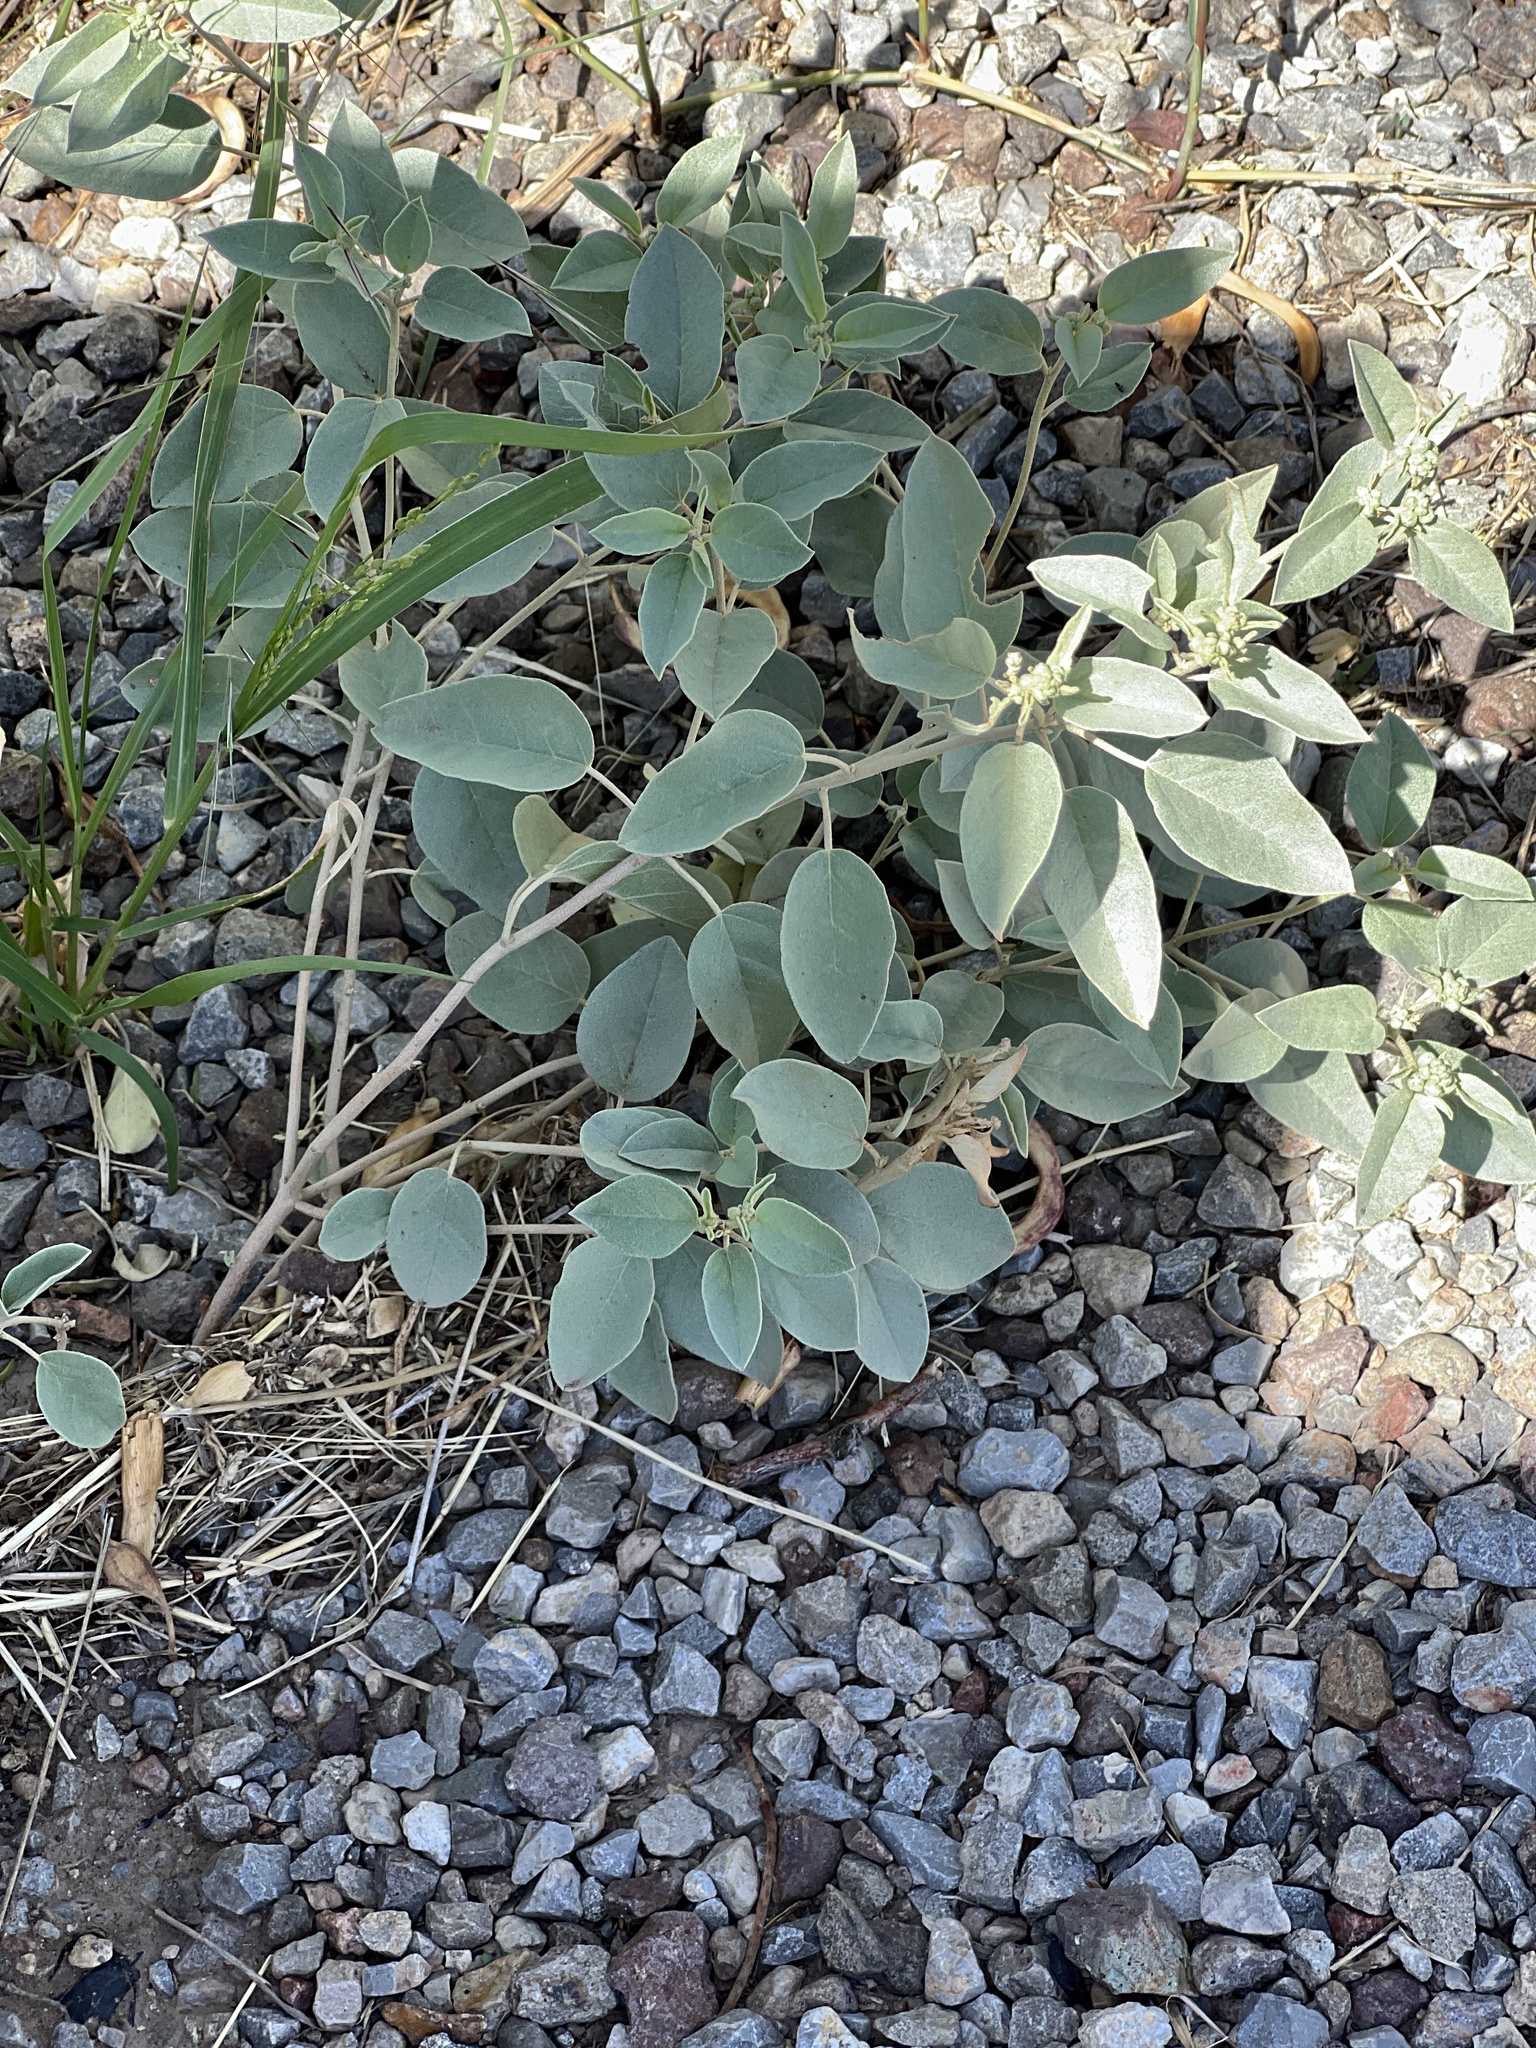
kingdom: Plantae
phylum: Tracheophyta
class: Magnoliopsida
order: Malpighiales
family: Euphorbiaceae
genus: Croton
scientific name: Croton pottsii
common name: Leatherweed
